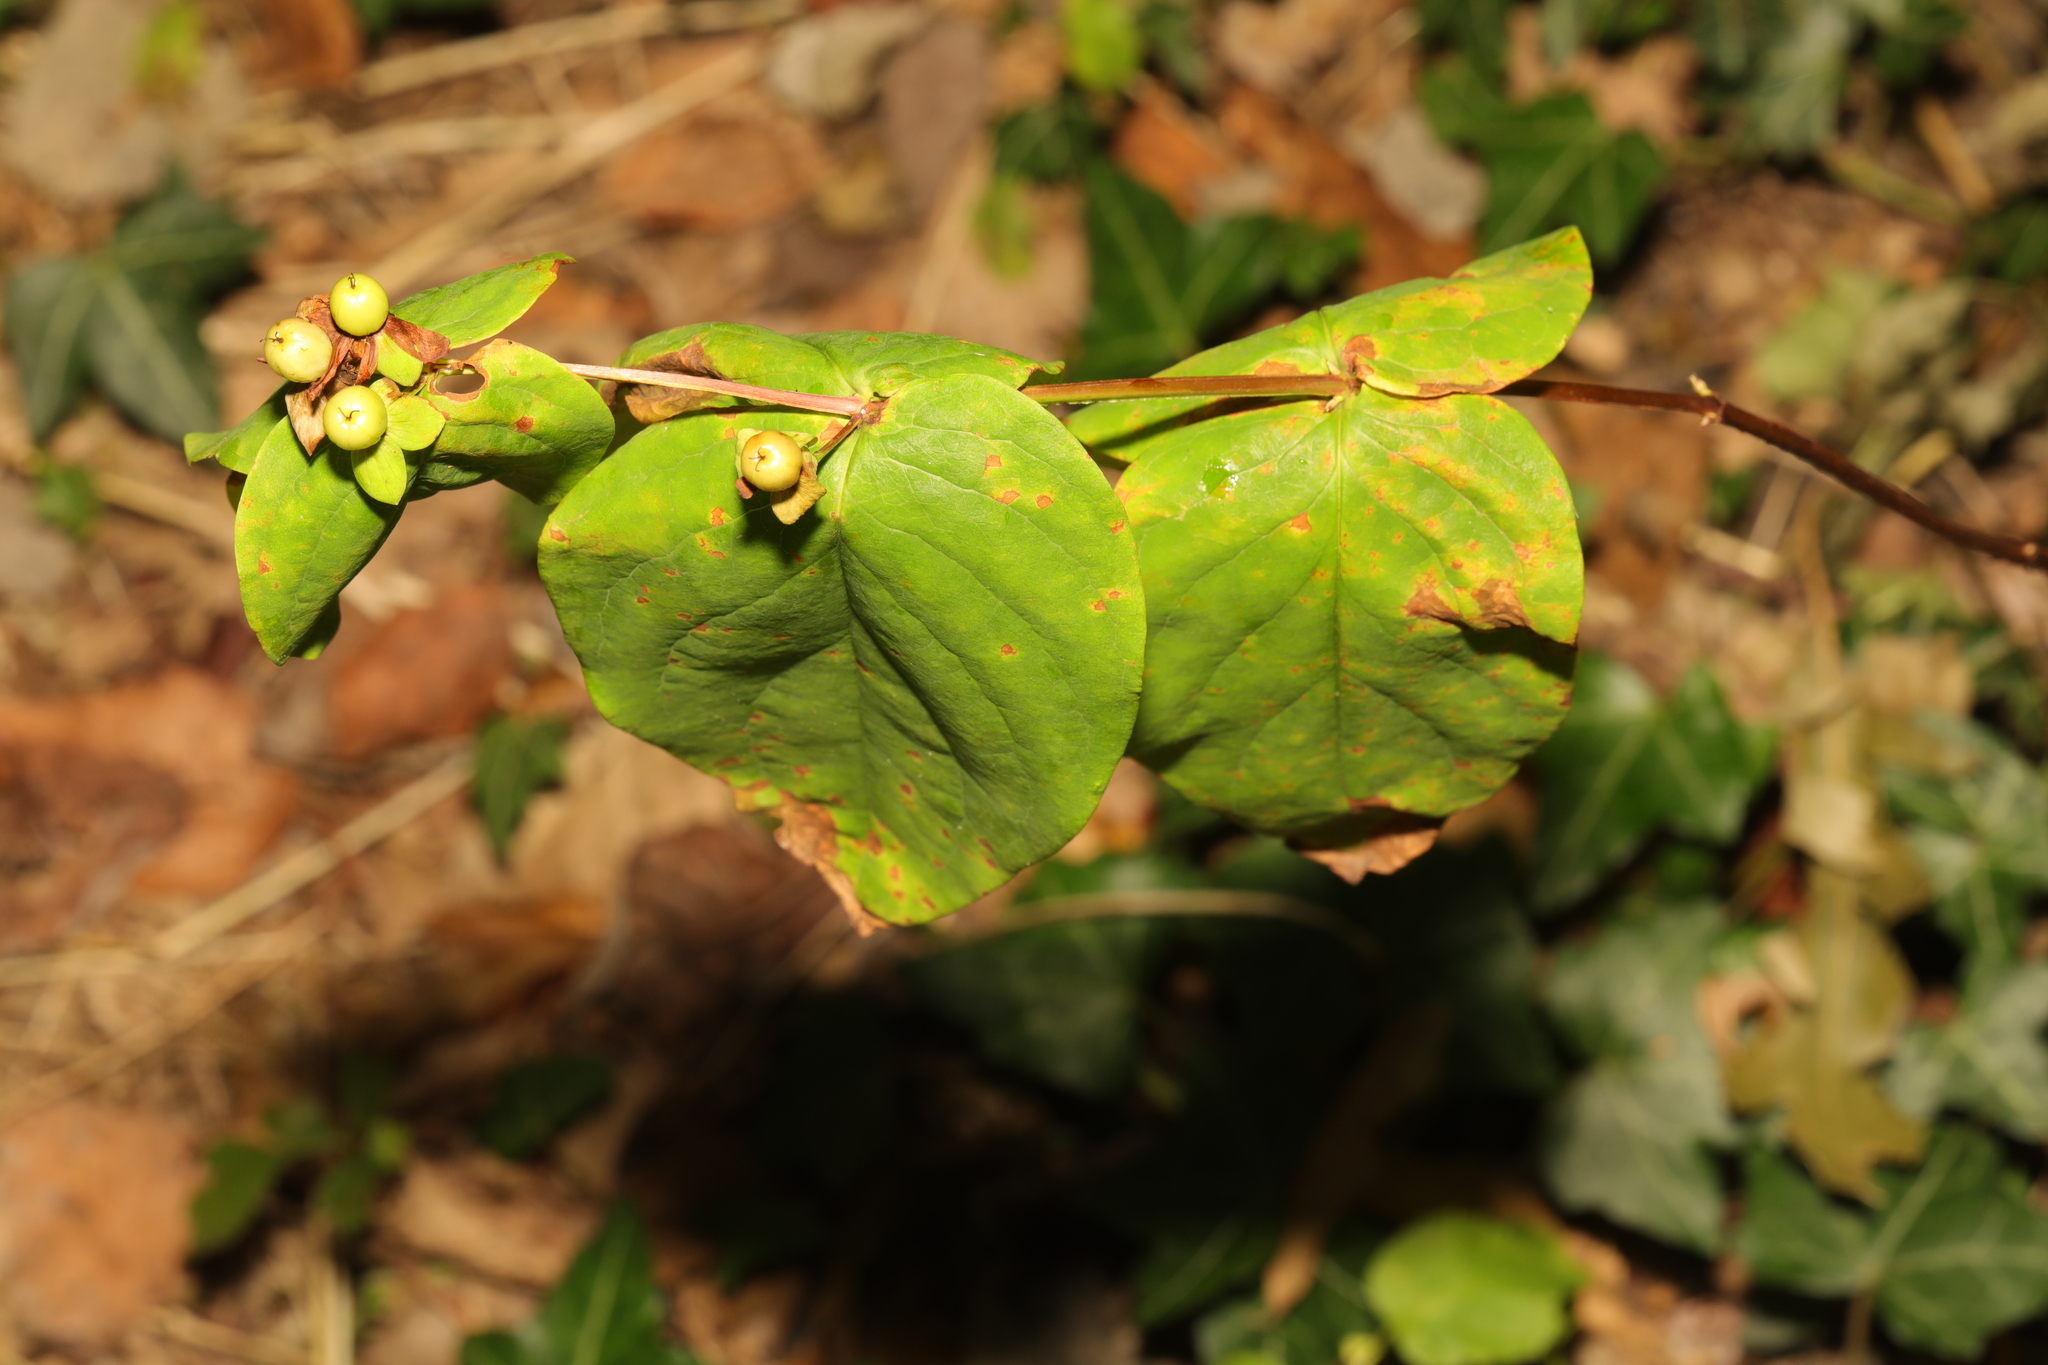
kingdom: Plantae
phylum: Tracheophyta
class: Magnoliopsida
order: Malpighiales
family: Hypericaceae
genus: Hypericum
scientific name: Hypericum androsaemum
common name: Sweet-amber
